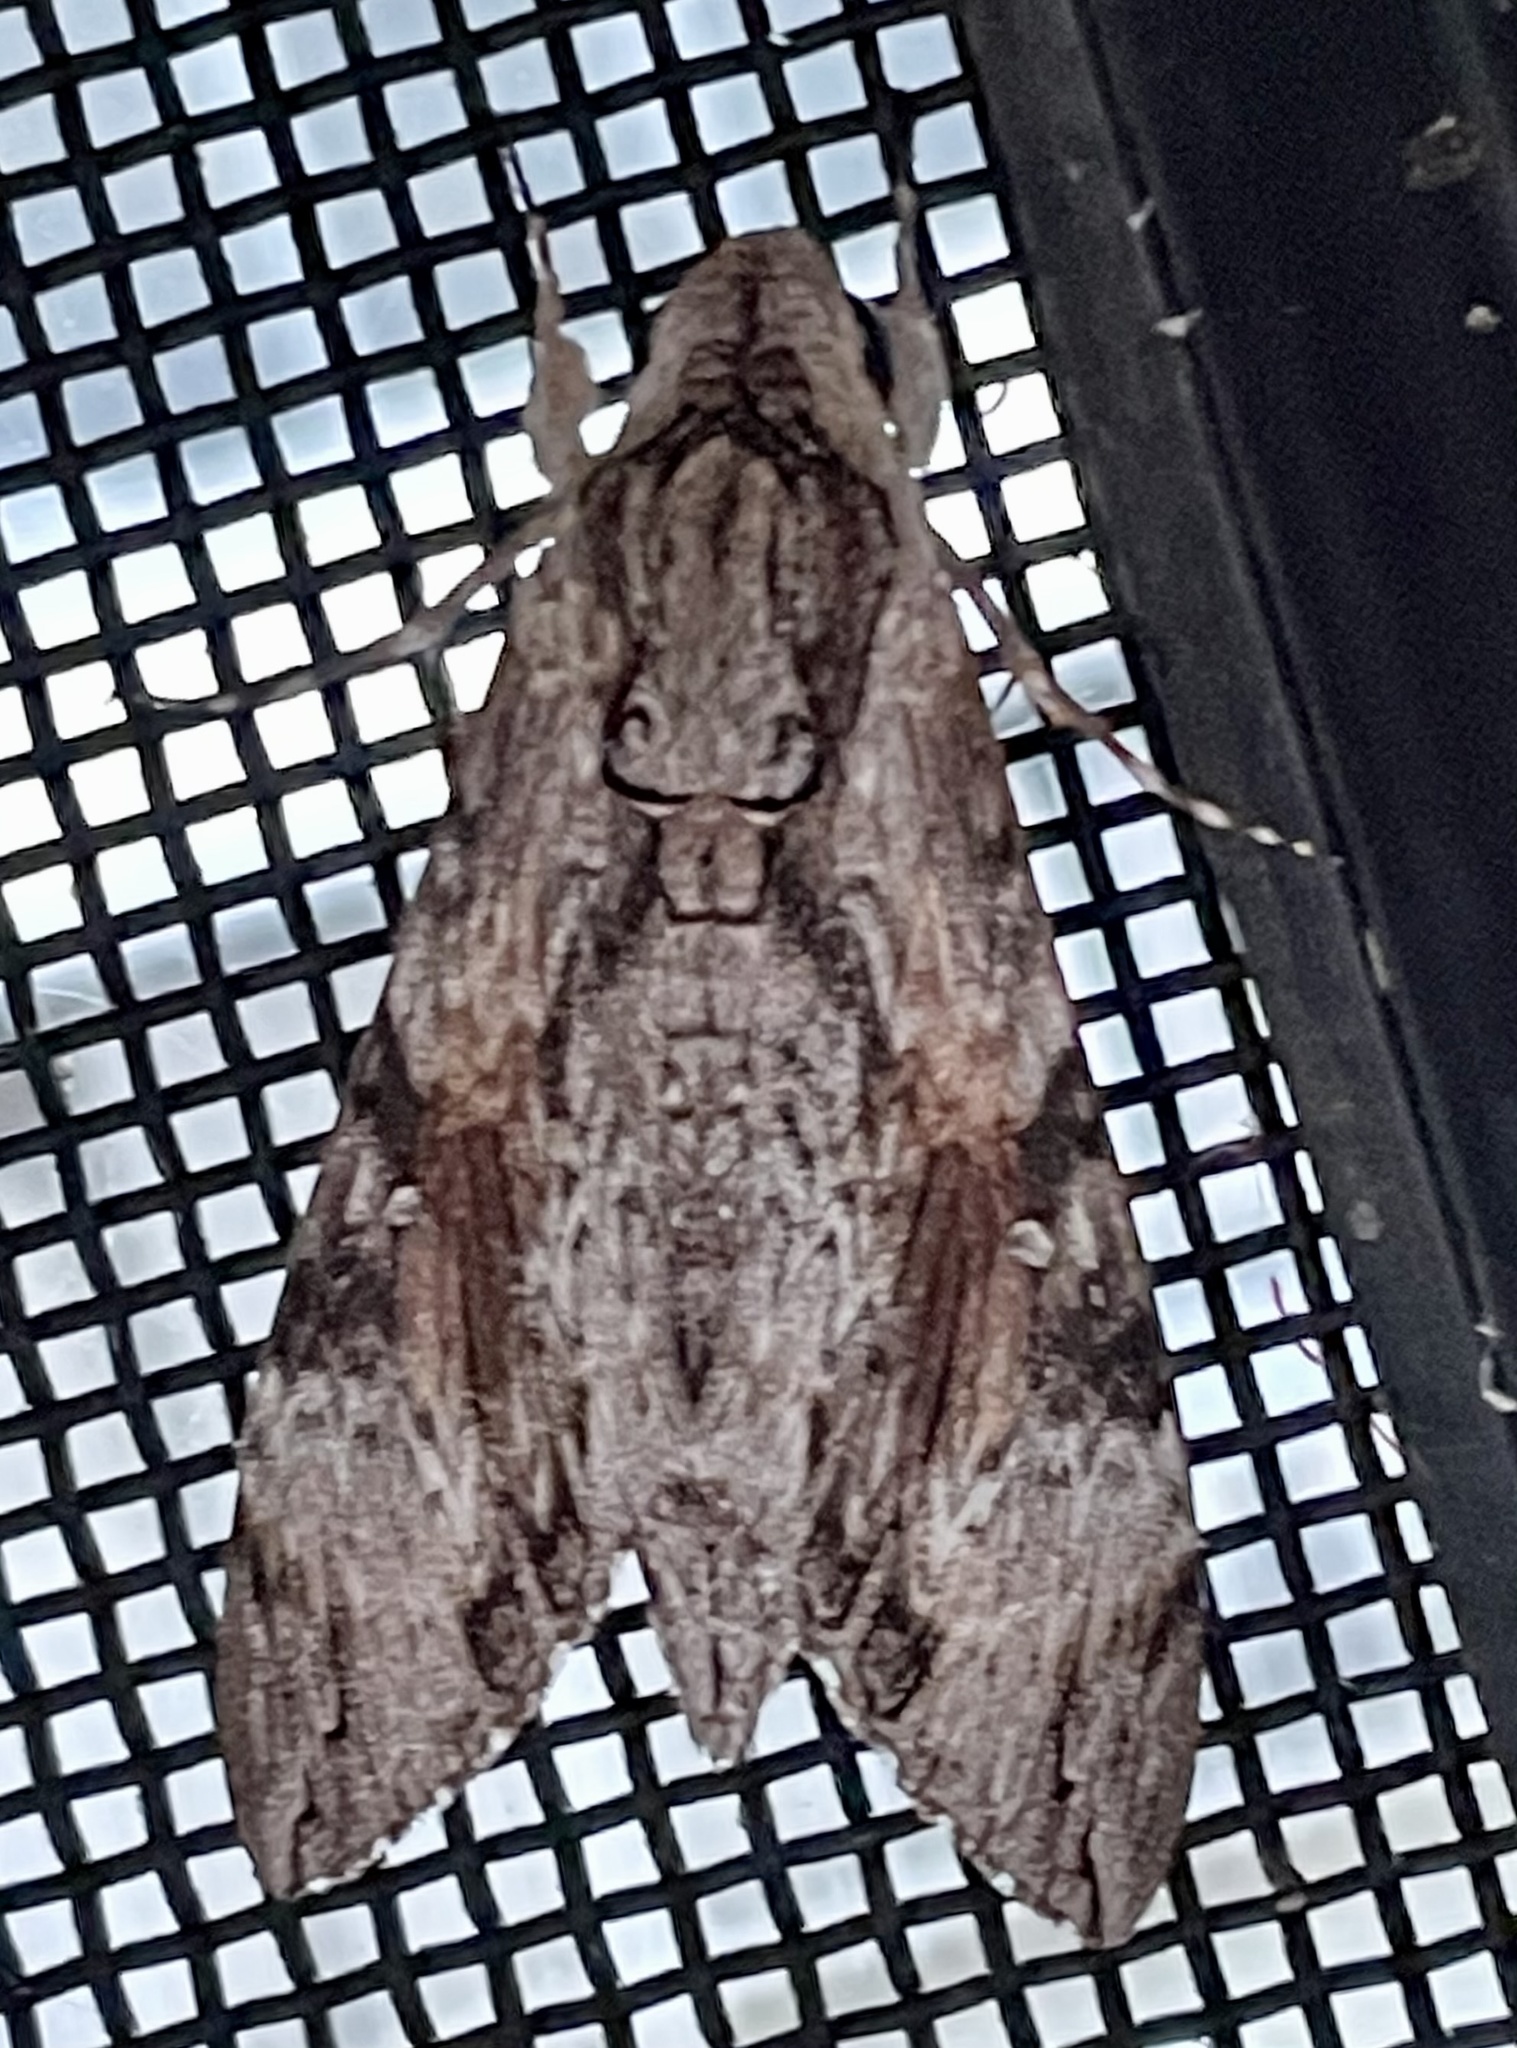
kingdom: Animalia
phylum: Arthropoda
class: Insecta
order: Lepidoptera
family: Sphingidae
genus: Agrius
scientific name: Agrius convolvuli
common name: Convolvulus hawkmoth
